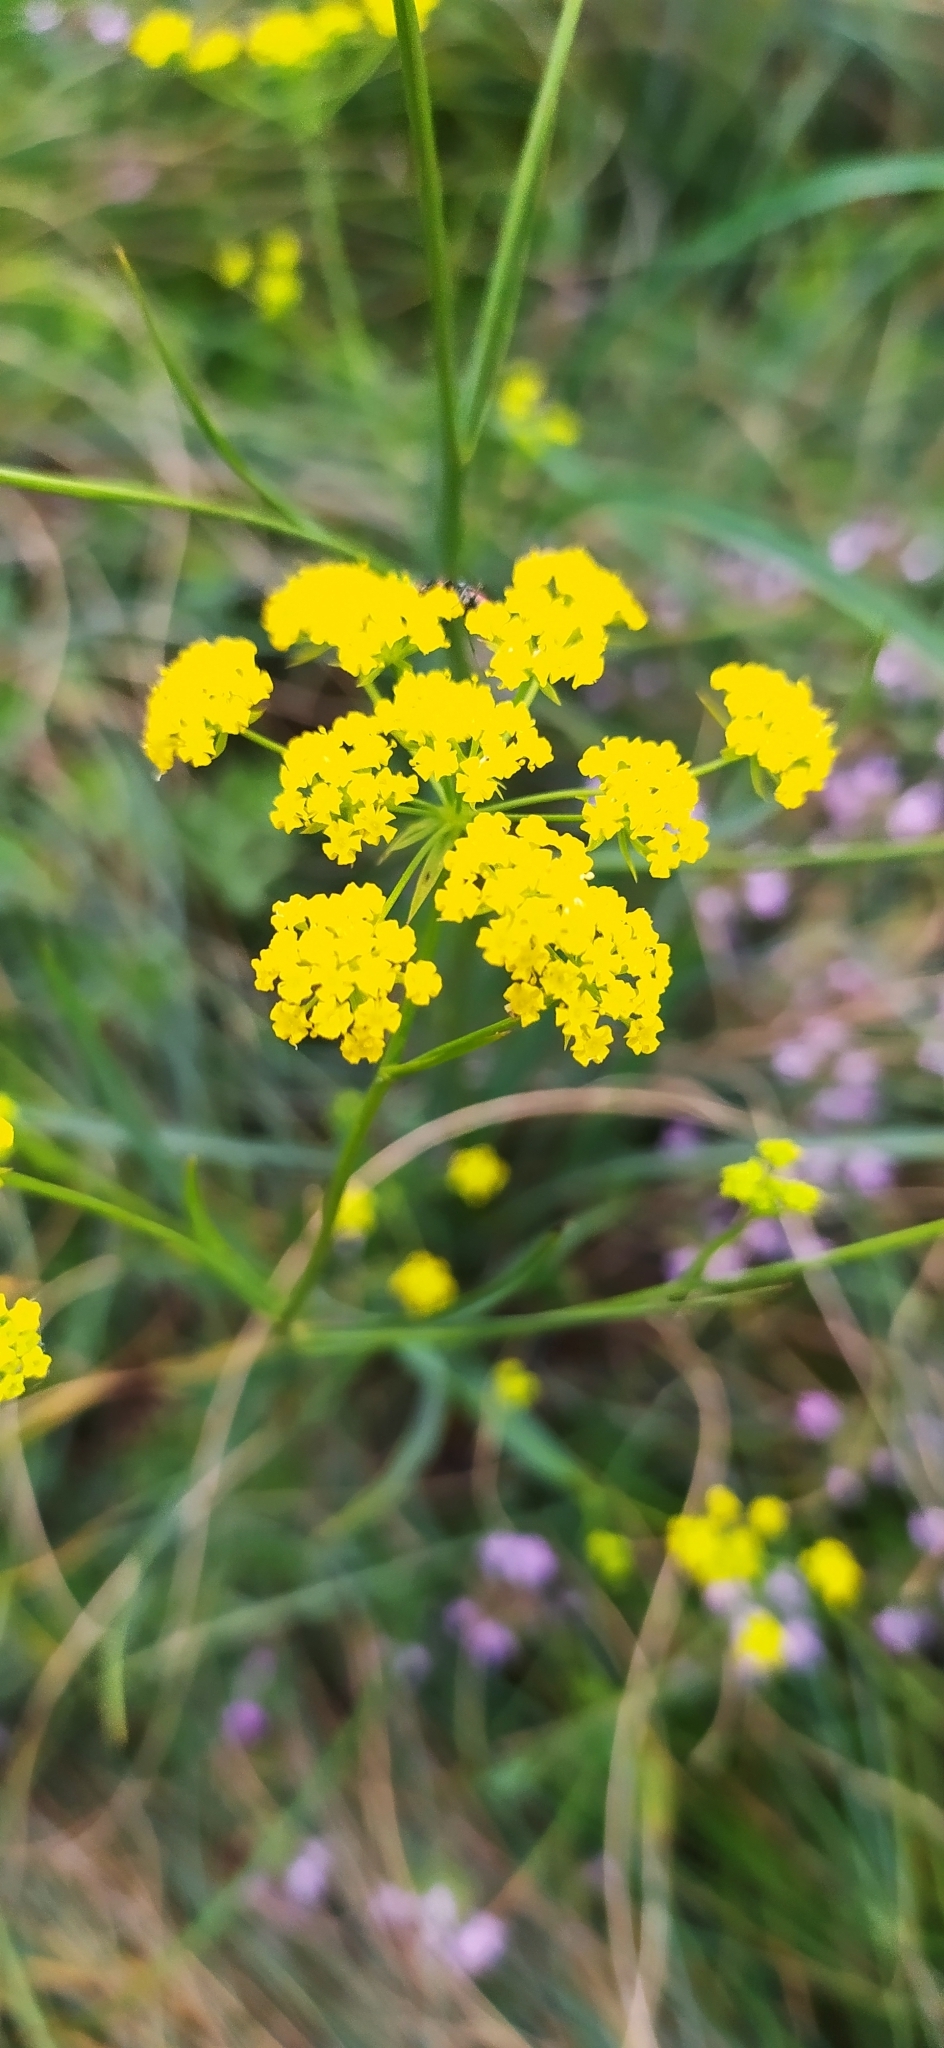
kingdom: Plantae
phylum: Tracheophyta
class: Magnoliopsida
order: Apiales
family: Apiaceae
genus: Bupleurum
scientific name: Bupleurum falcatum
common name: Sickle-leaved hare's-ear
